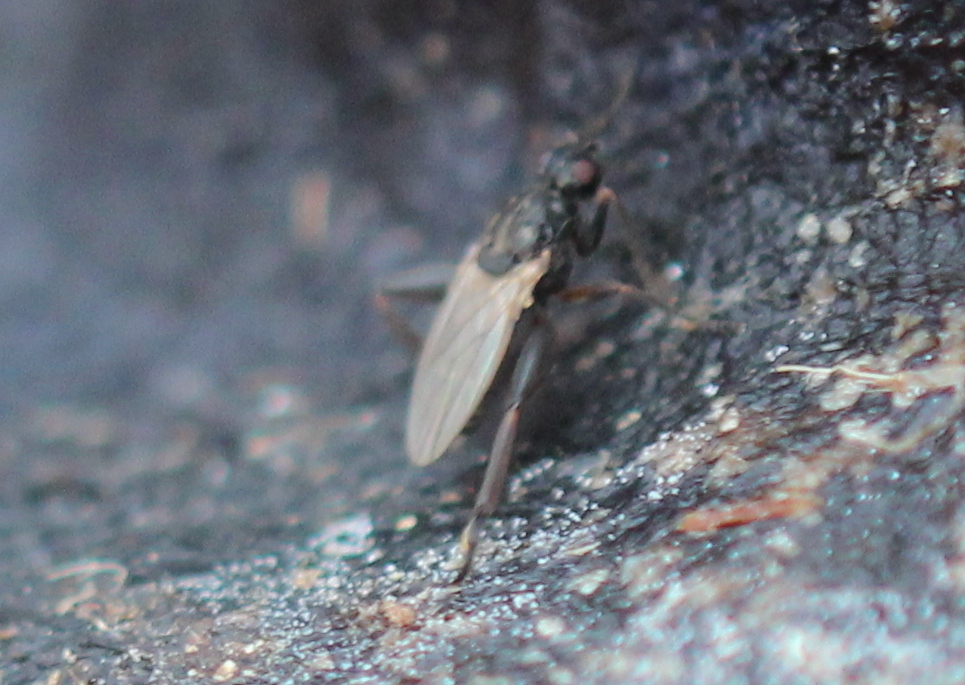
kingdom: Animalia
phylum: Arthropoda
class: Insecta
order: Diptera
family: Sphaeroceridae
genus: Sphaerocera
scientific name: Sphaerocera curvipes
